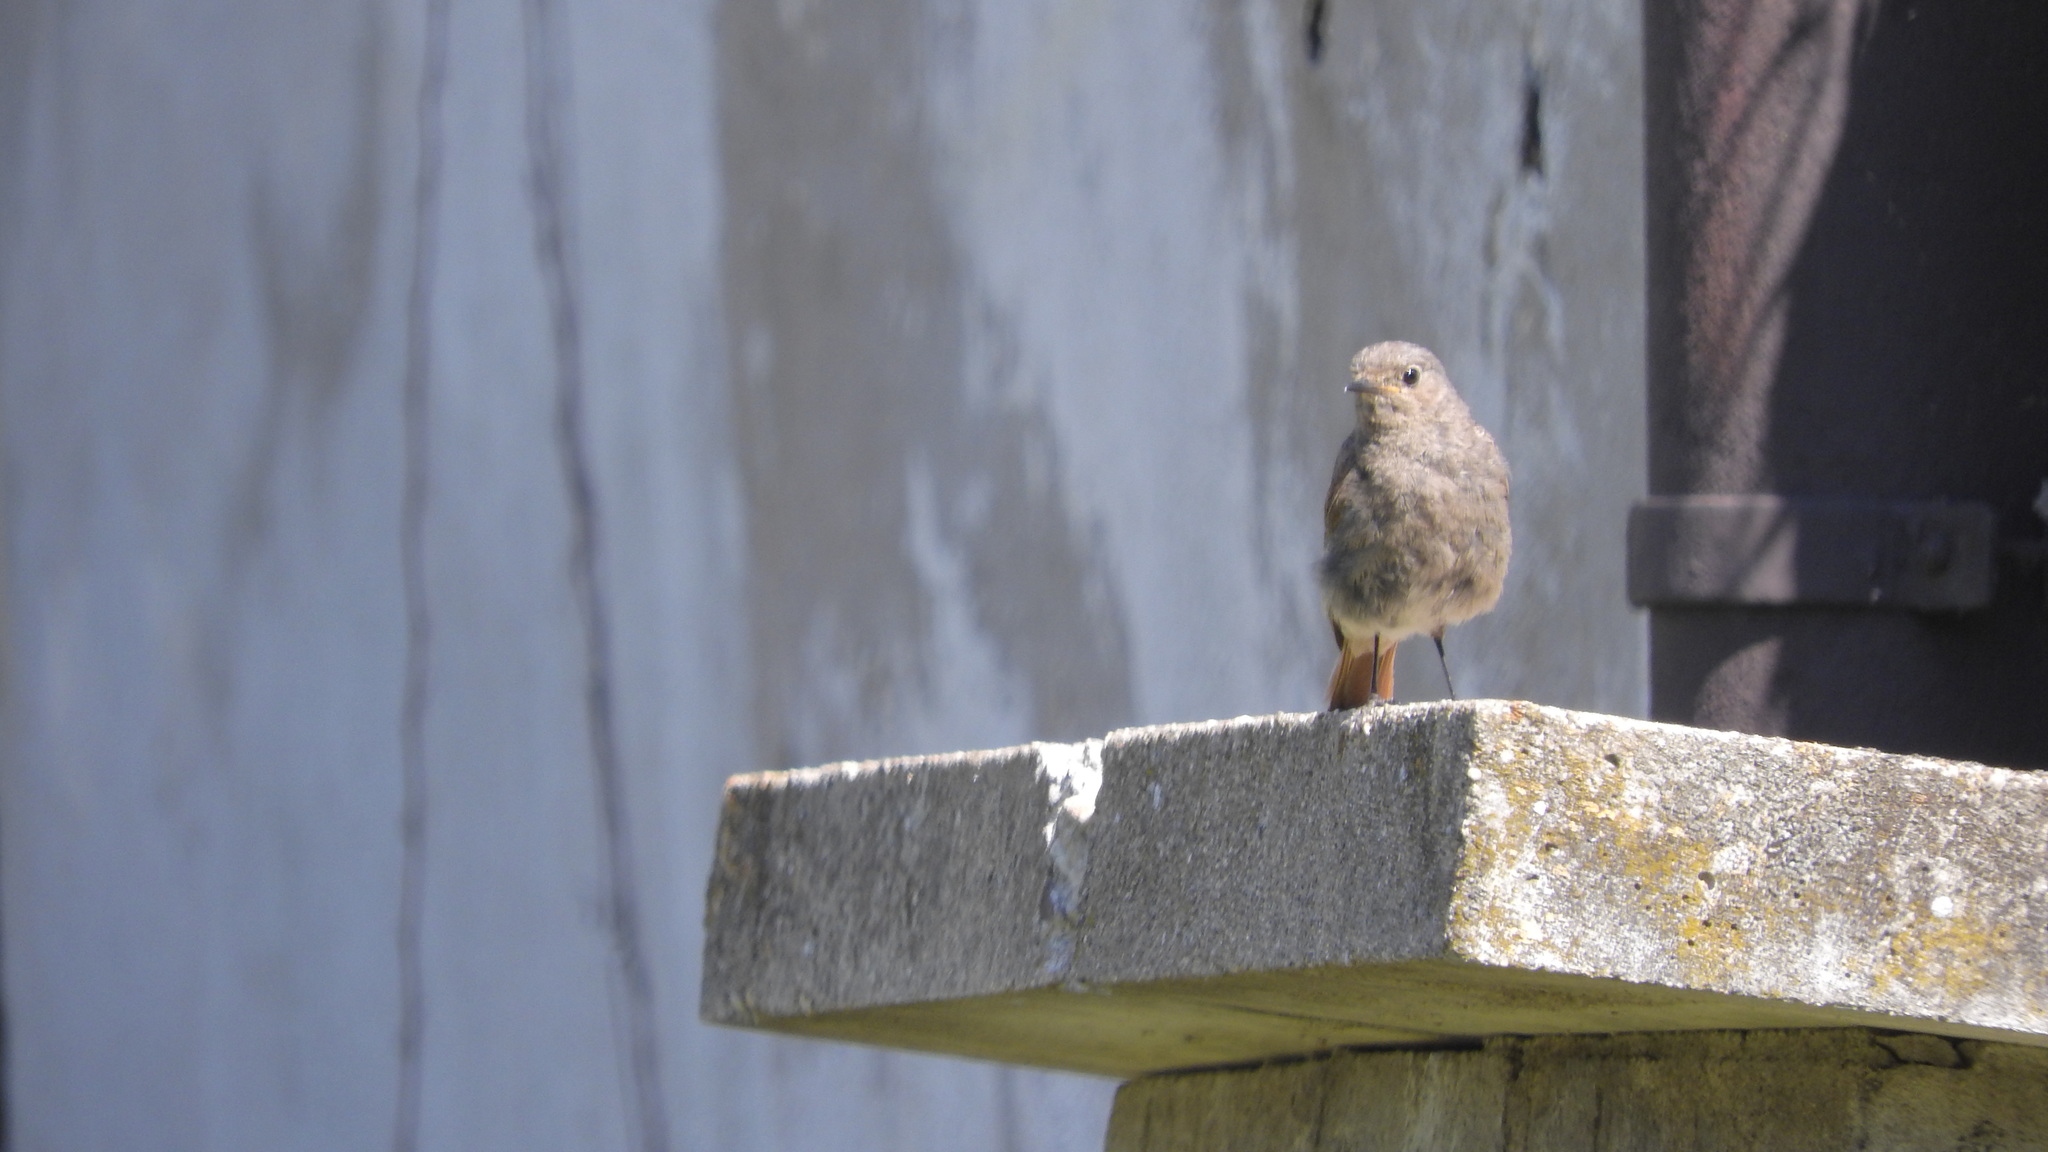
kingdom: Animalia
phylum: Chordata
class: Aves
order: Passeriformes
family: Muscicapidae
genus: Phoenicurus
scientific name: Phoenicurus ochruros
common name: Black redstart
